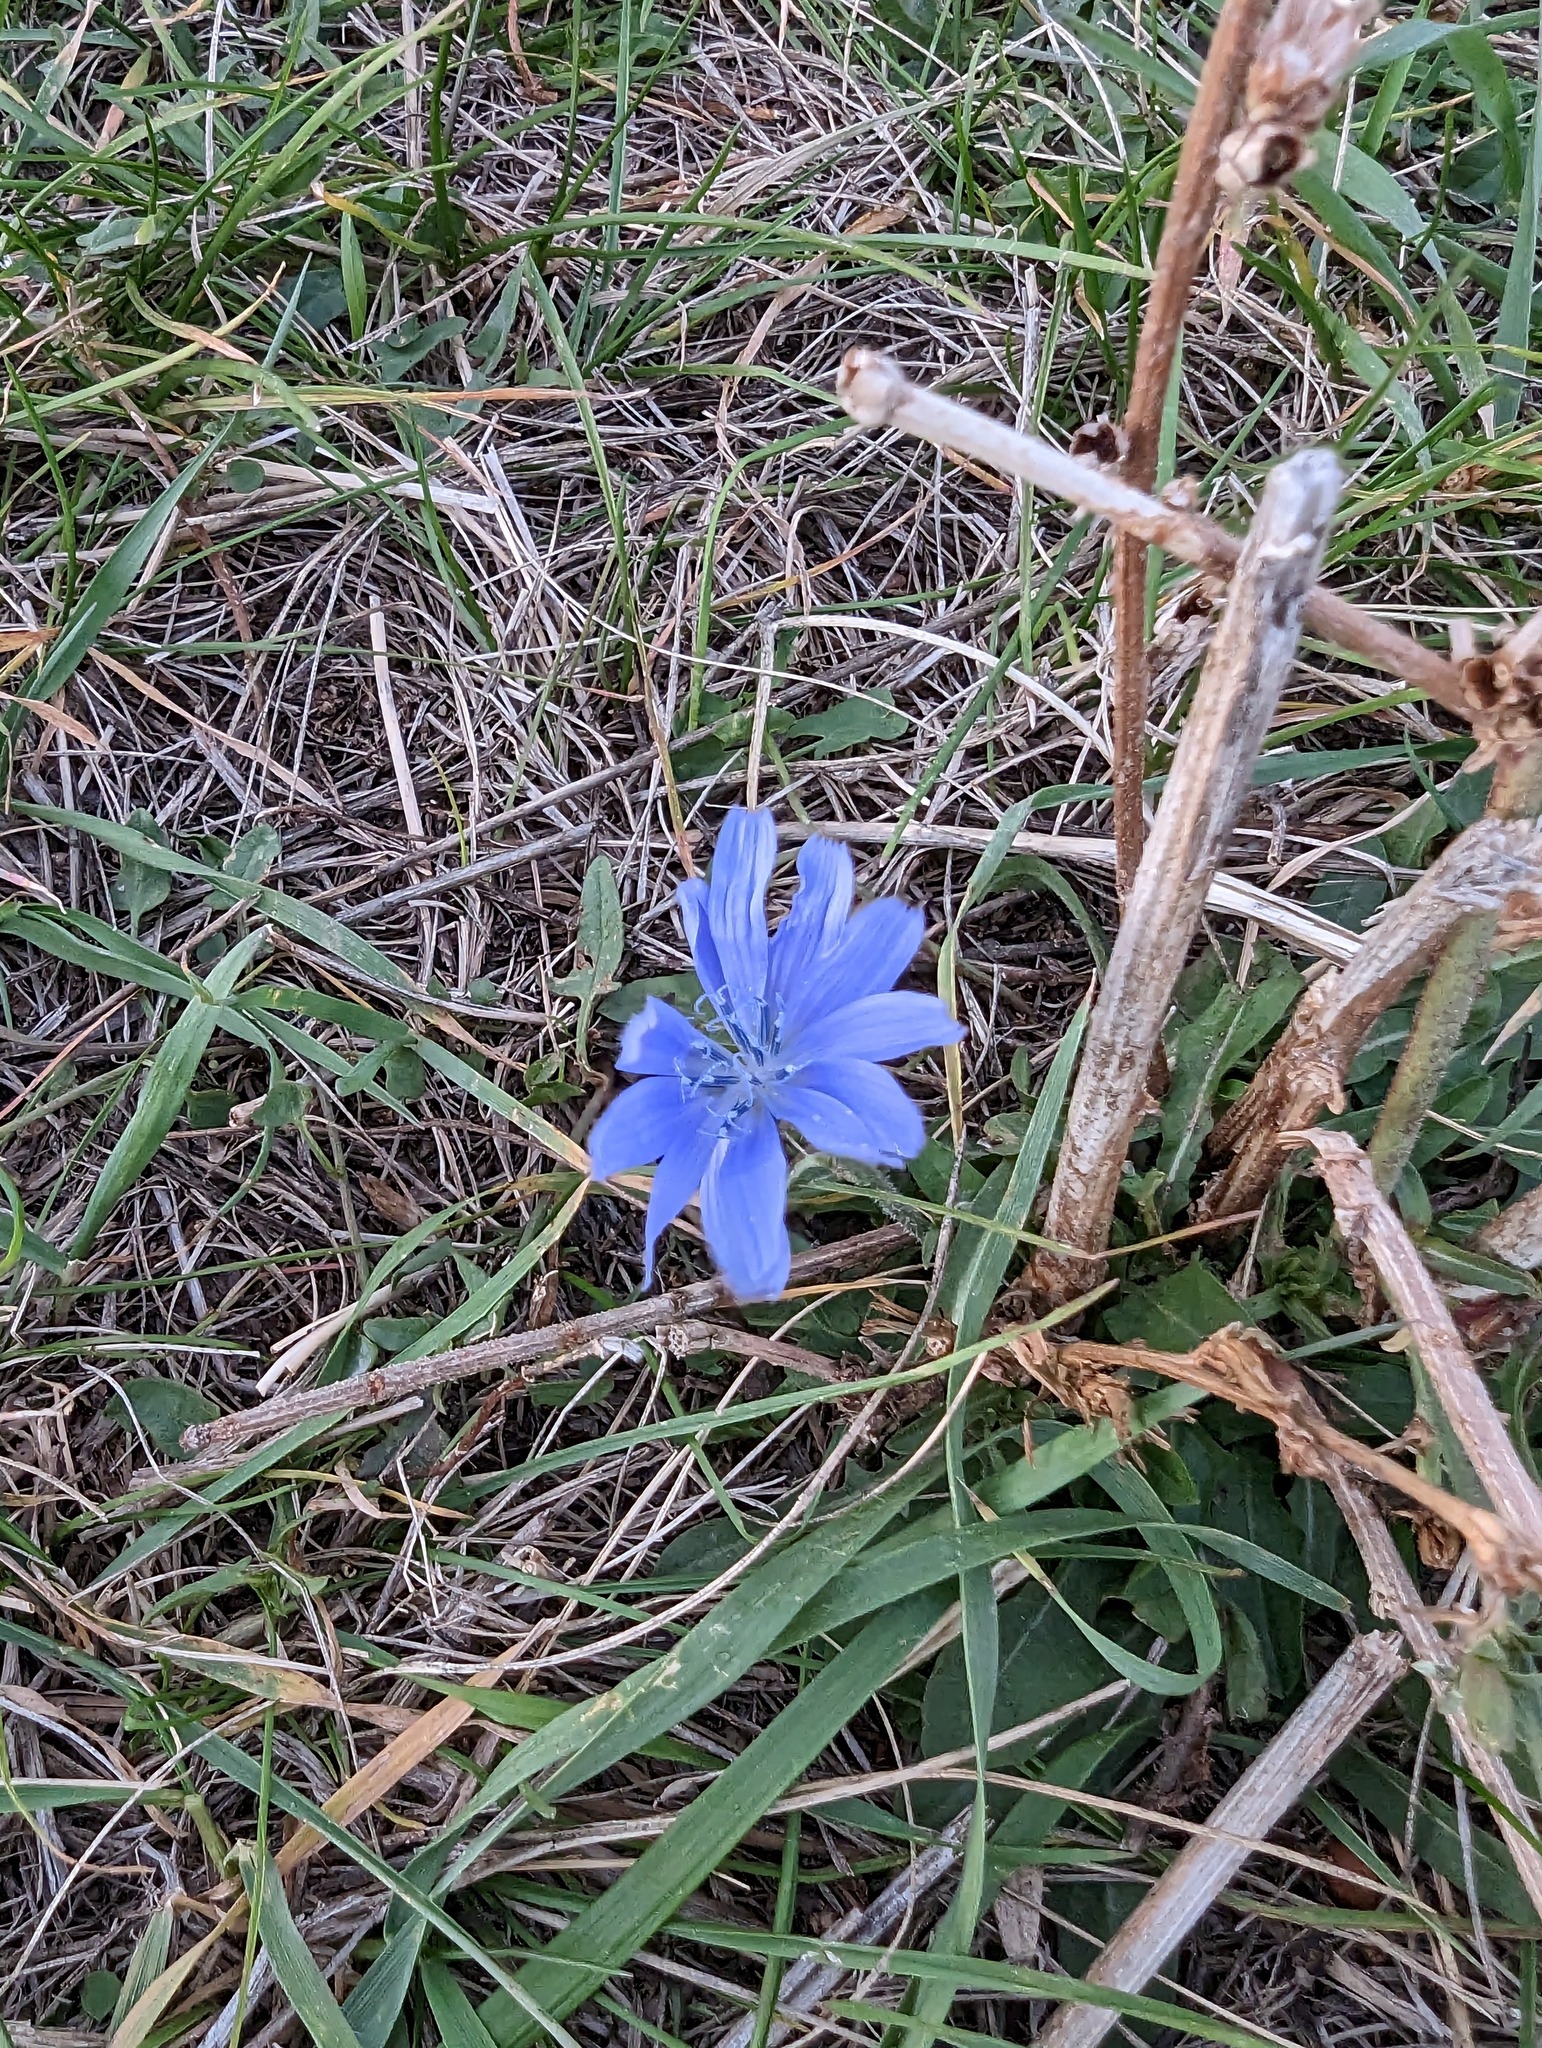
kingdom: Plantae
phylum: Tracheophyta
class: Magnoliopsida
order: Asterales
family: Asteraceae
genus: Cichorium
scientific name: Cichorium intybus
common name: Chicory
